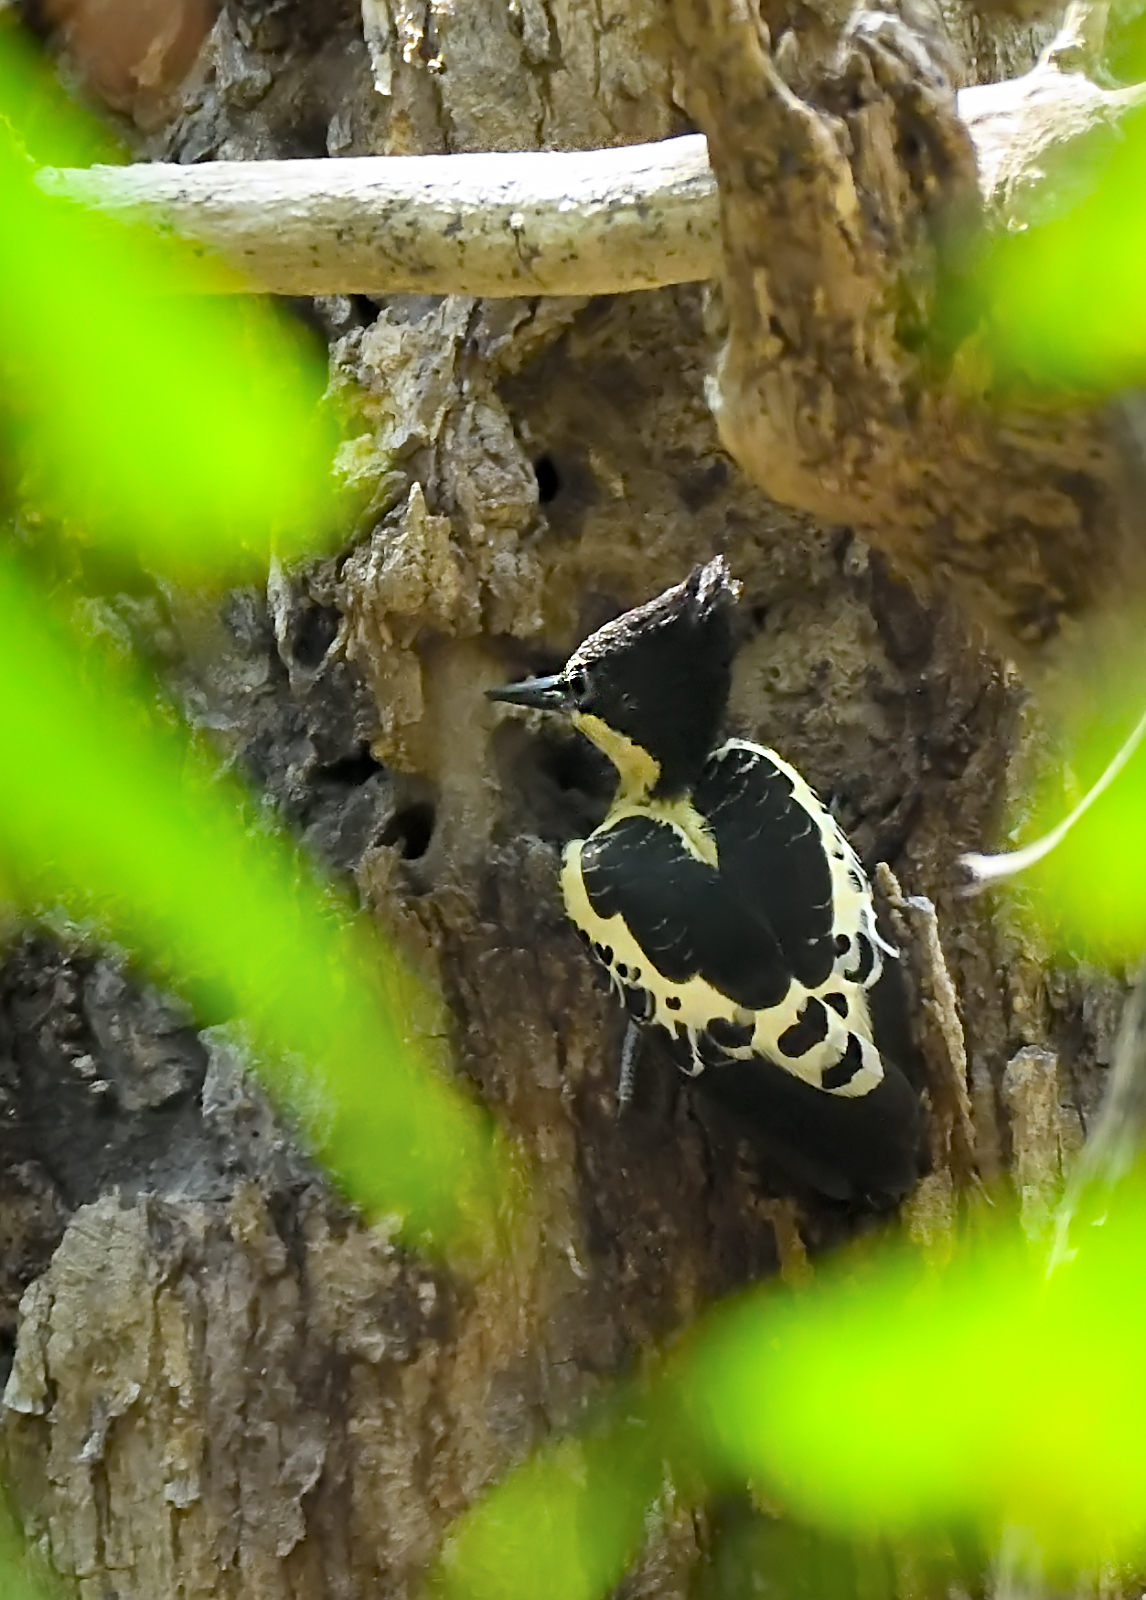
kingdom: Animalia
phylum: Chordata
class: Aves
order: Piciformes
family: Picidae
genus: Hemicircus
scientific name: Hemicircus canente
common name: Heart-spotted woodpecker
